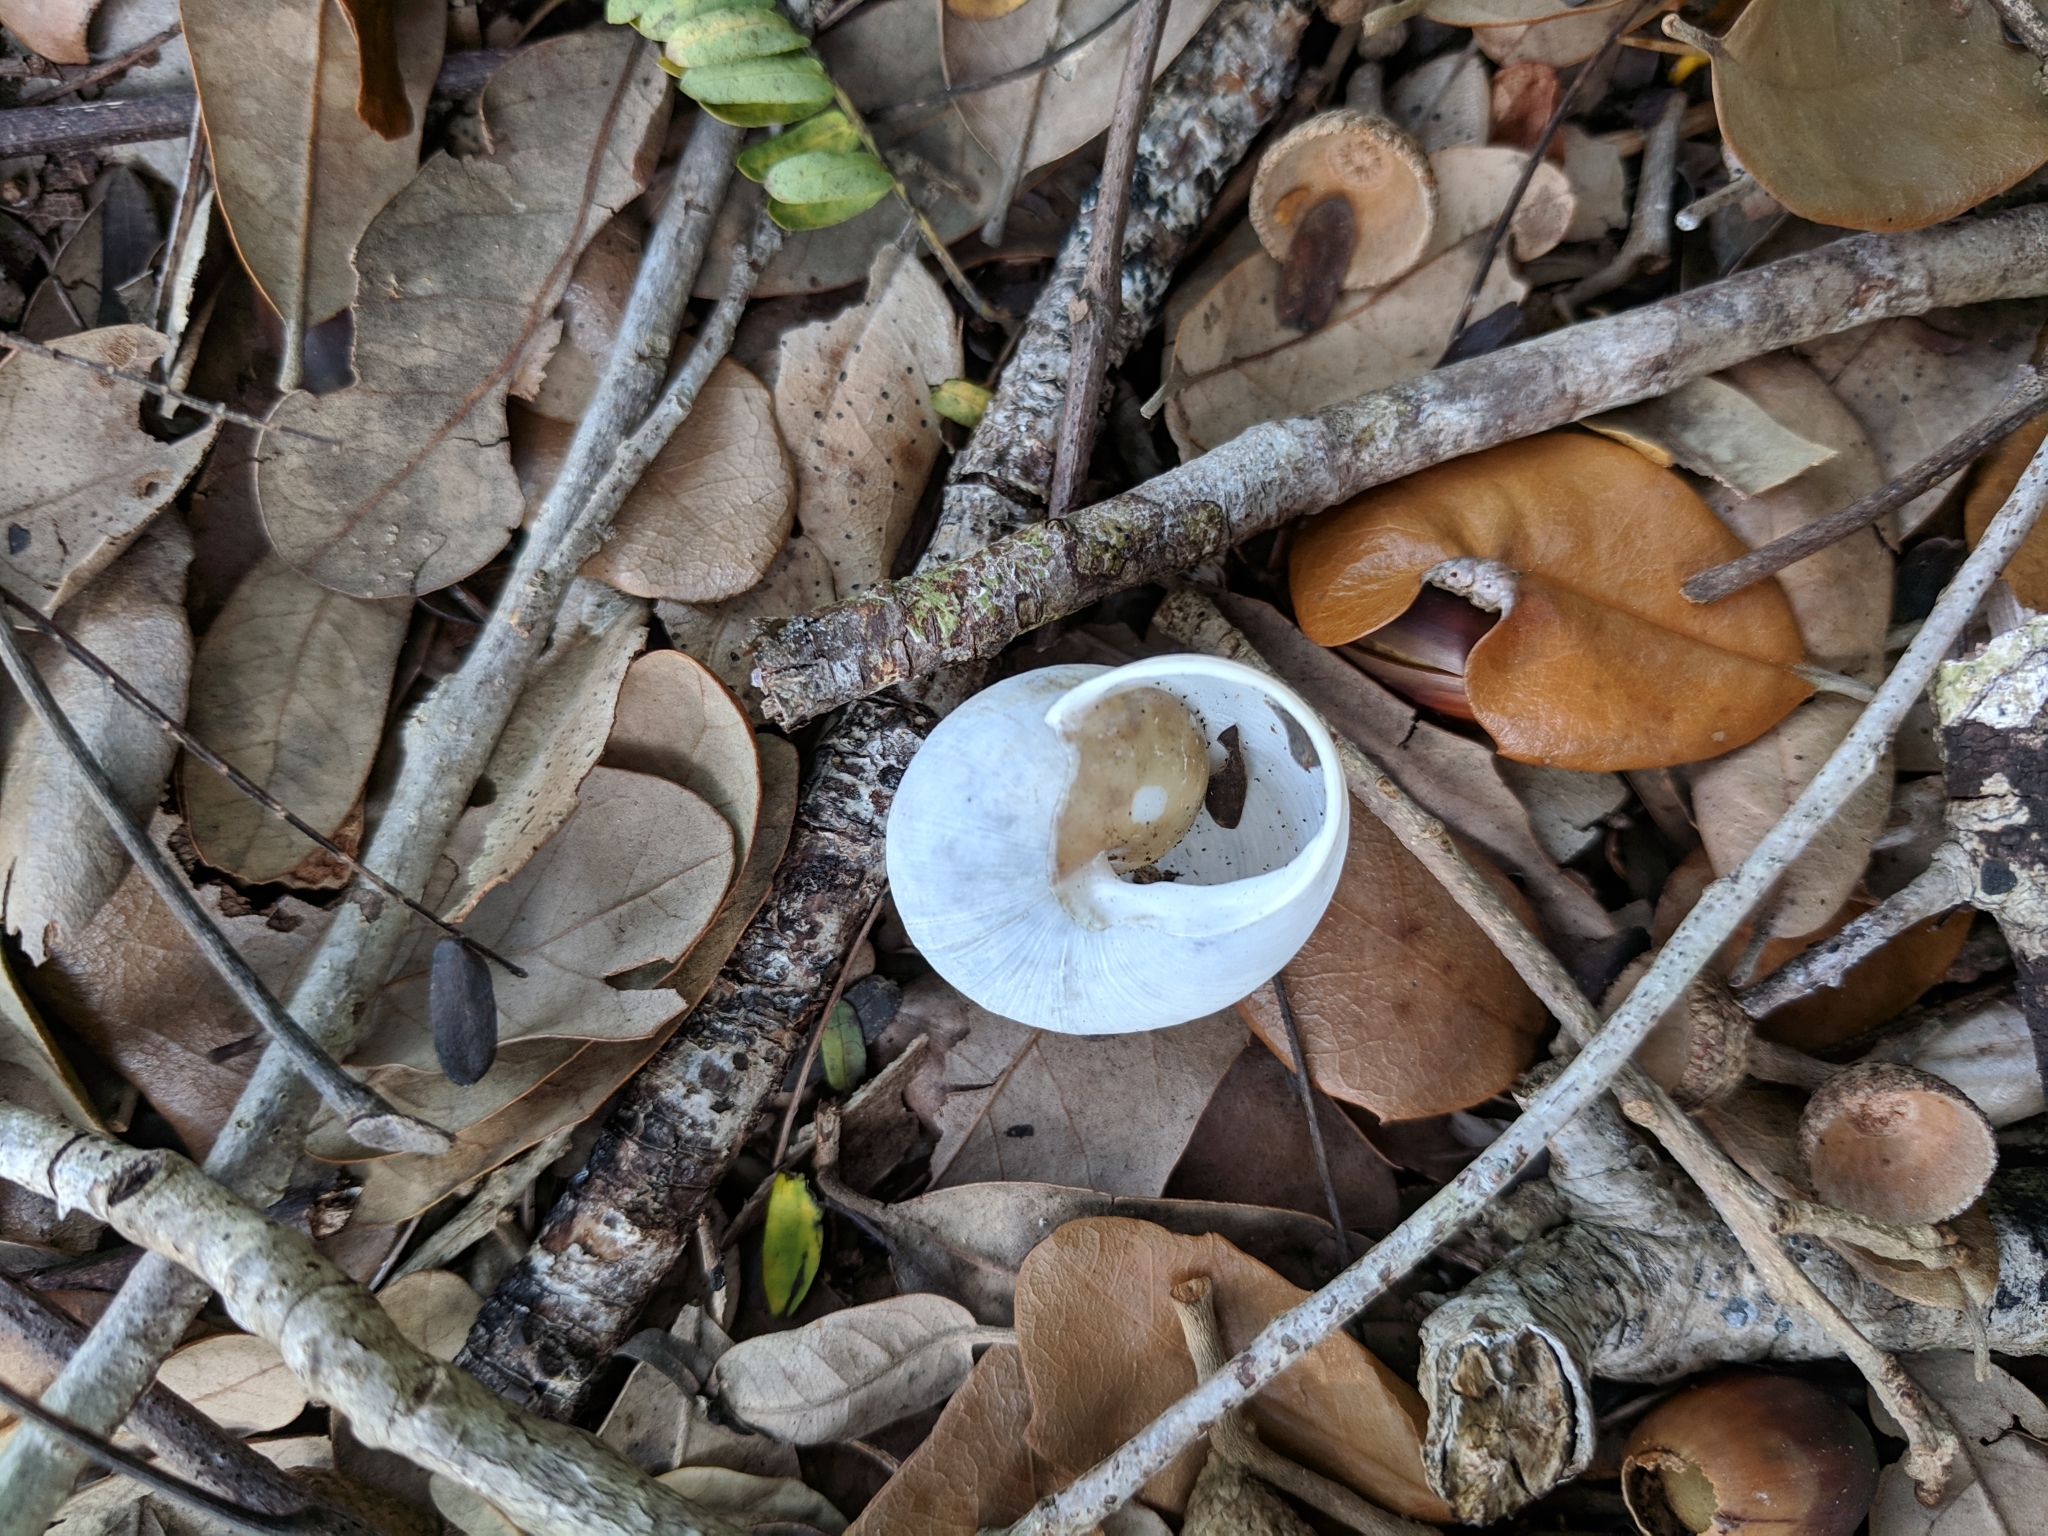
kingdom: Animalia
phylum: Mollusca
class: Gastropoda
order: Stylommatophora
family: Zachrysiidae
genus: Zachrysia
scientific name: Zachrysia provisoria
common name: Garden zachrysia
